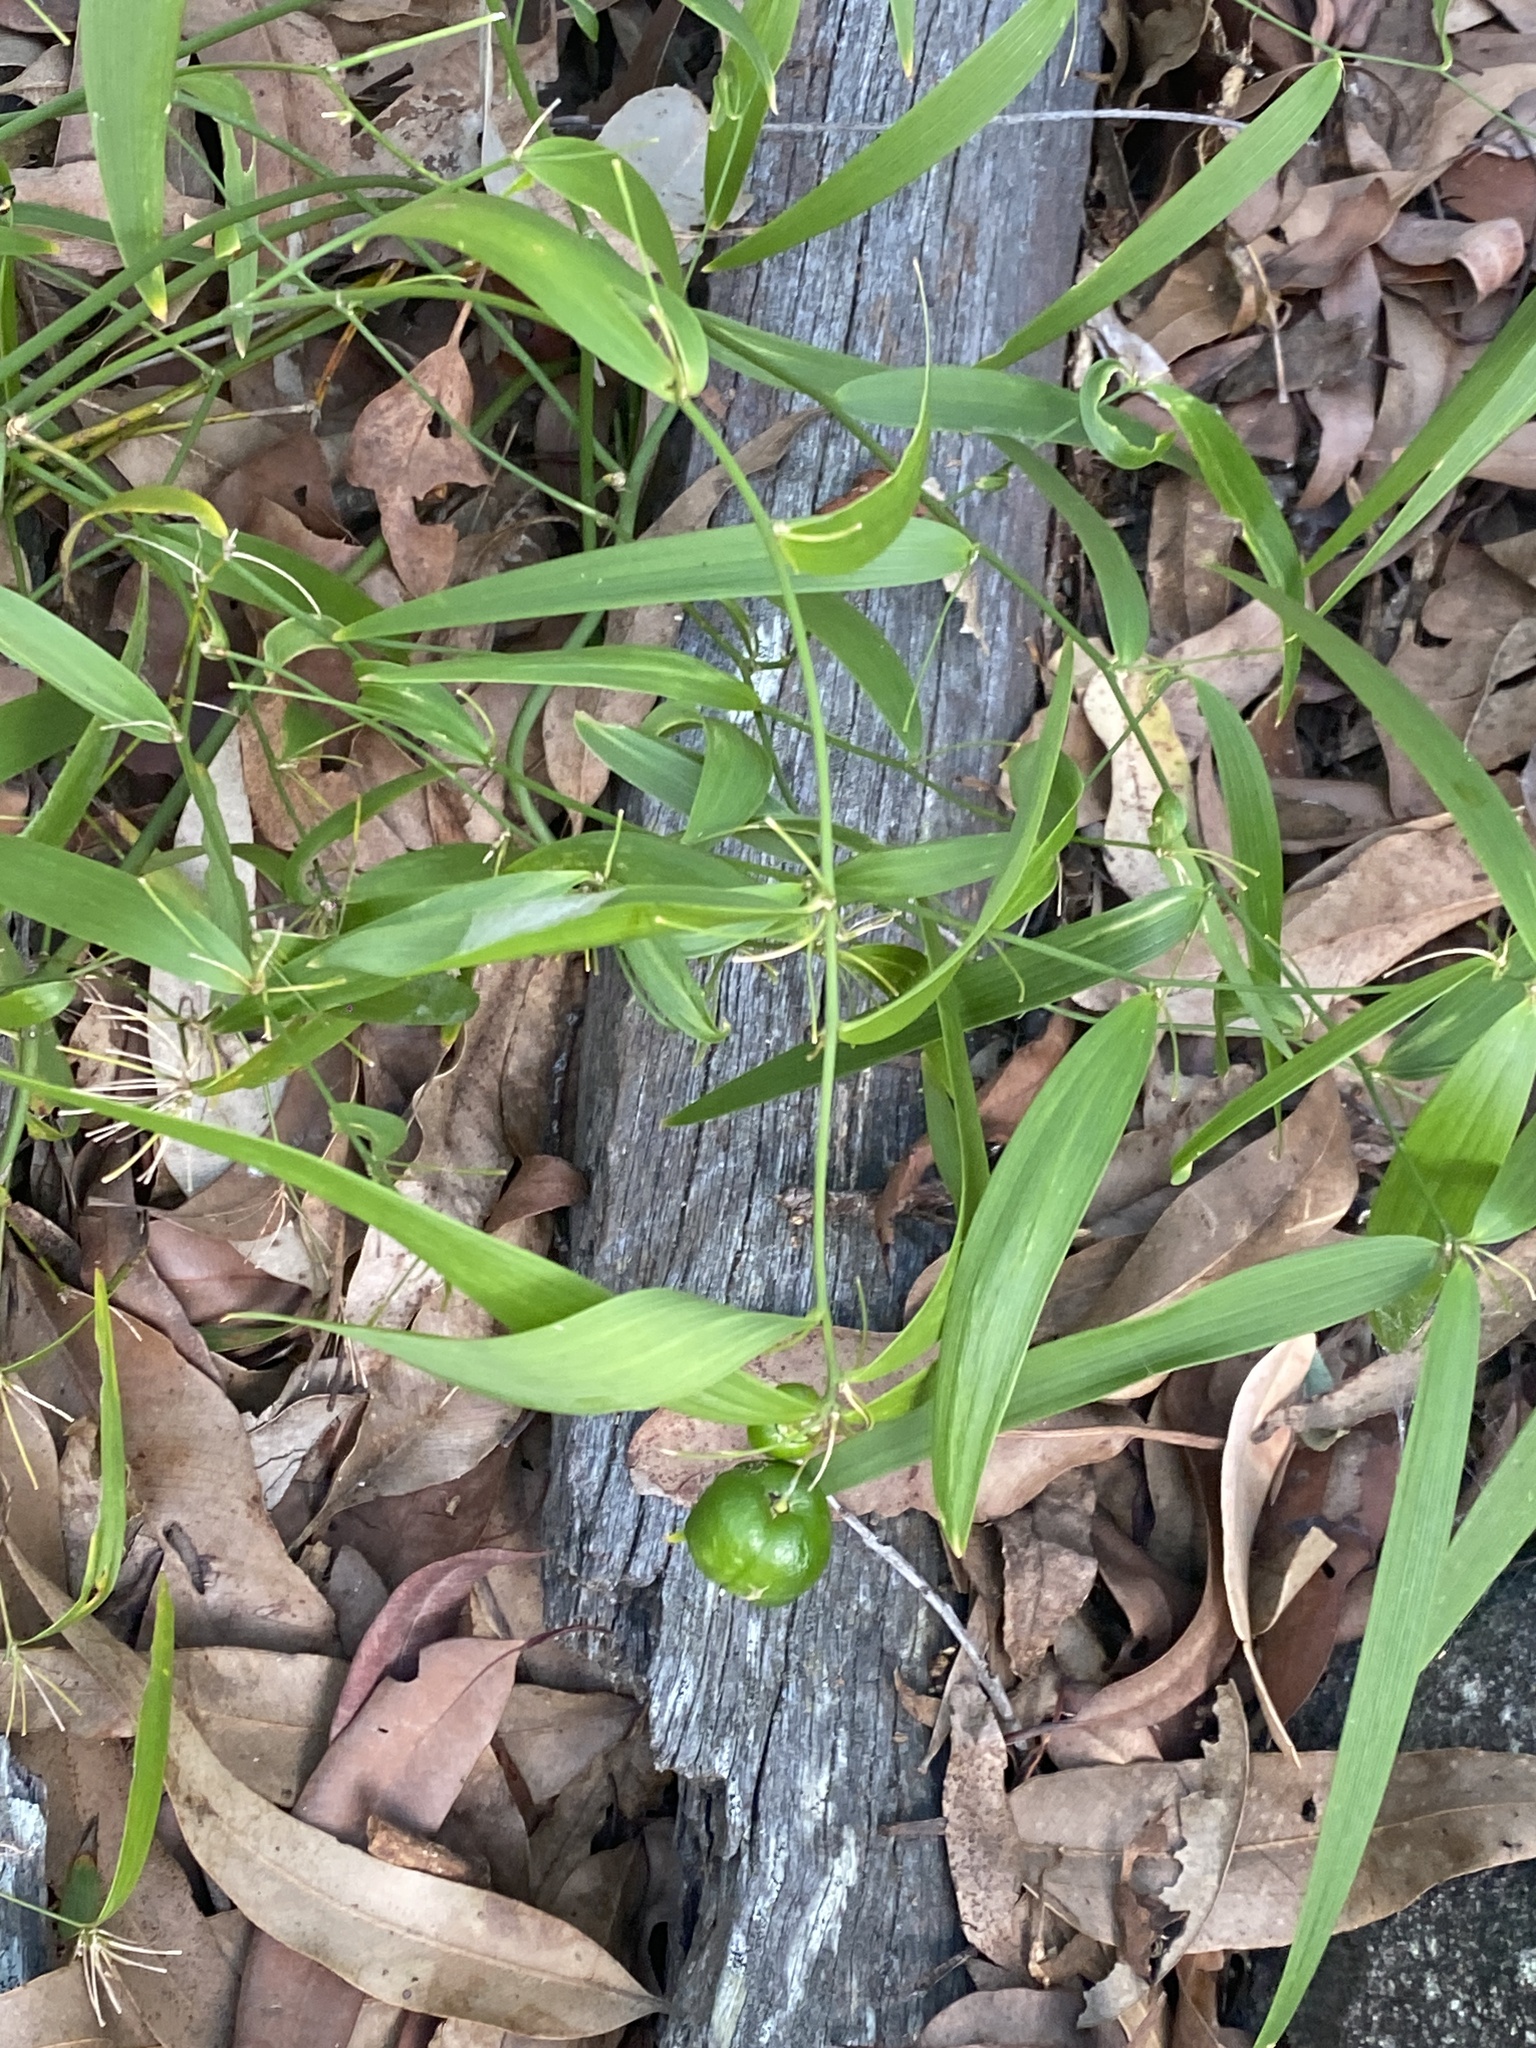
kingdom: Plantae
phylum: Tracheophyta
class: Liliopsida
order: Asparagales
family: Asparagaceae
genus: Eustrephus
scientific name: Eustrephus latifolius
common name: Orangevine
